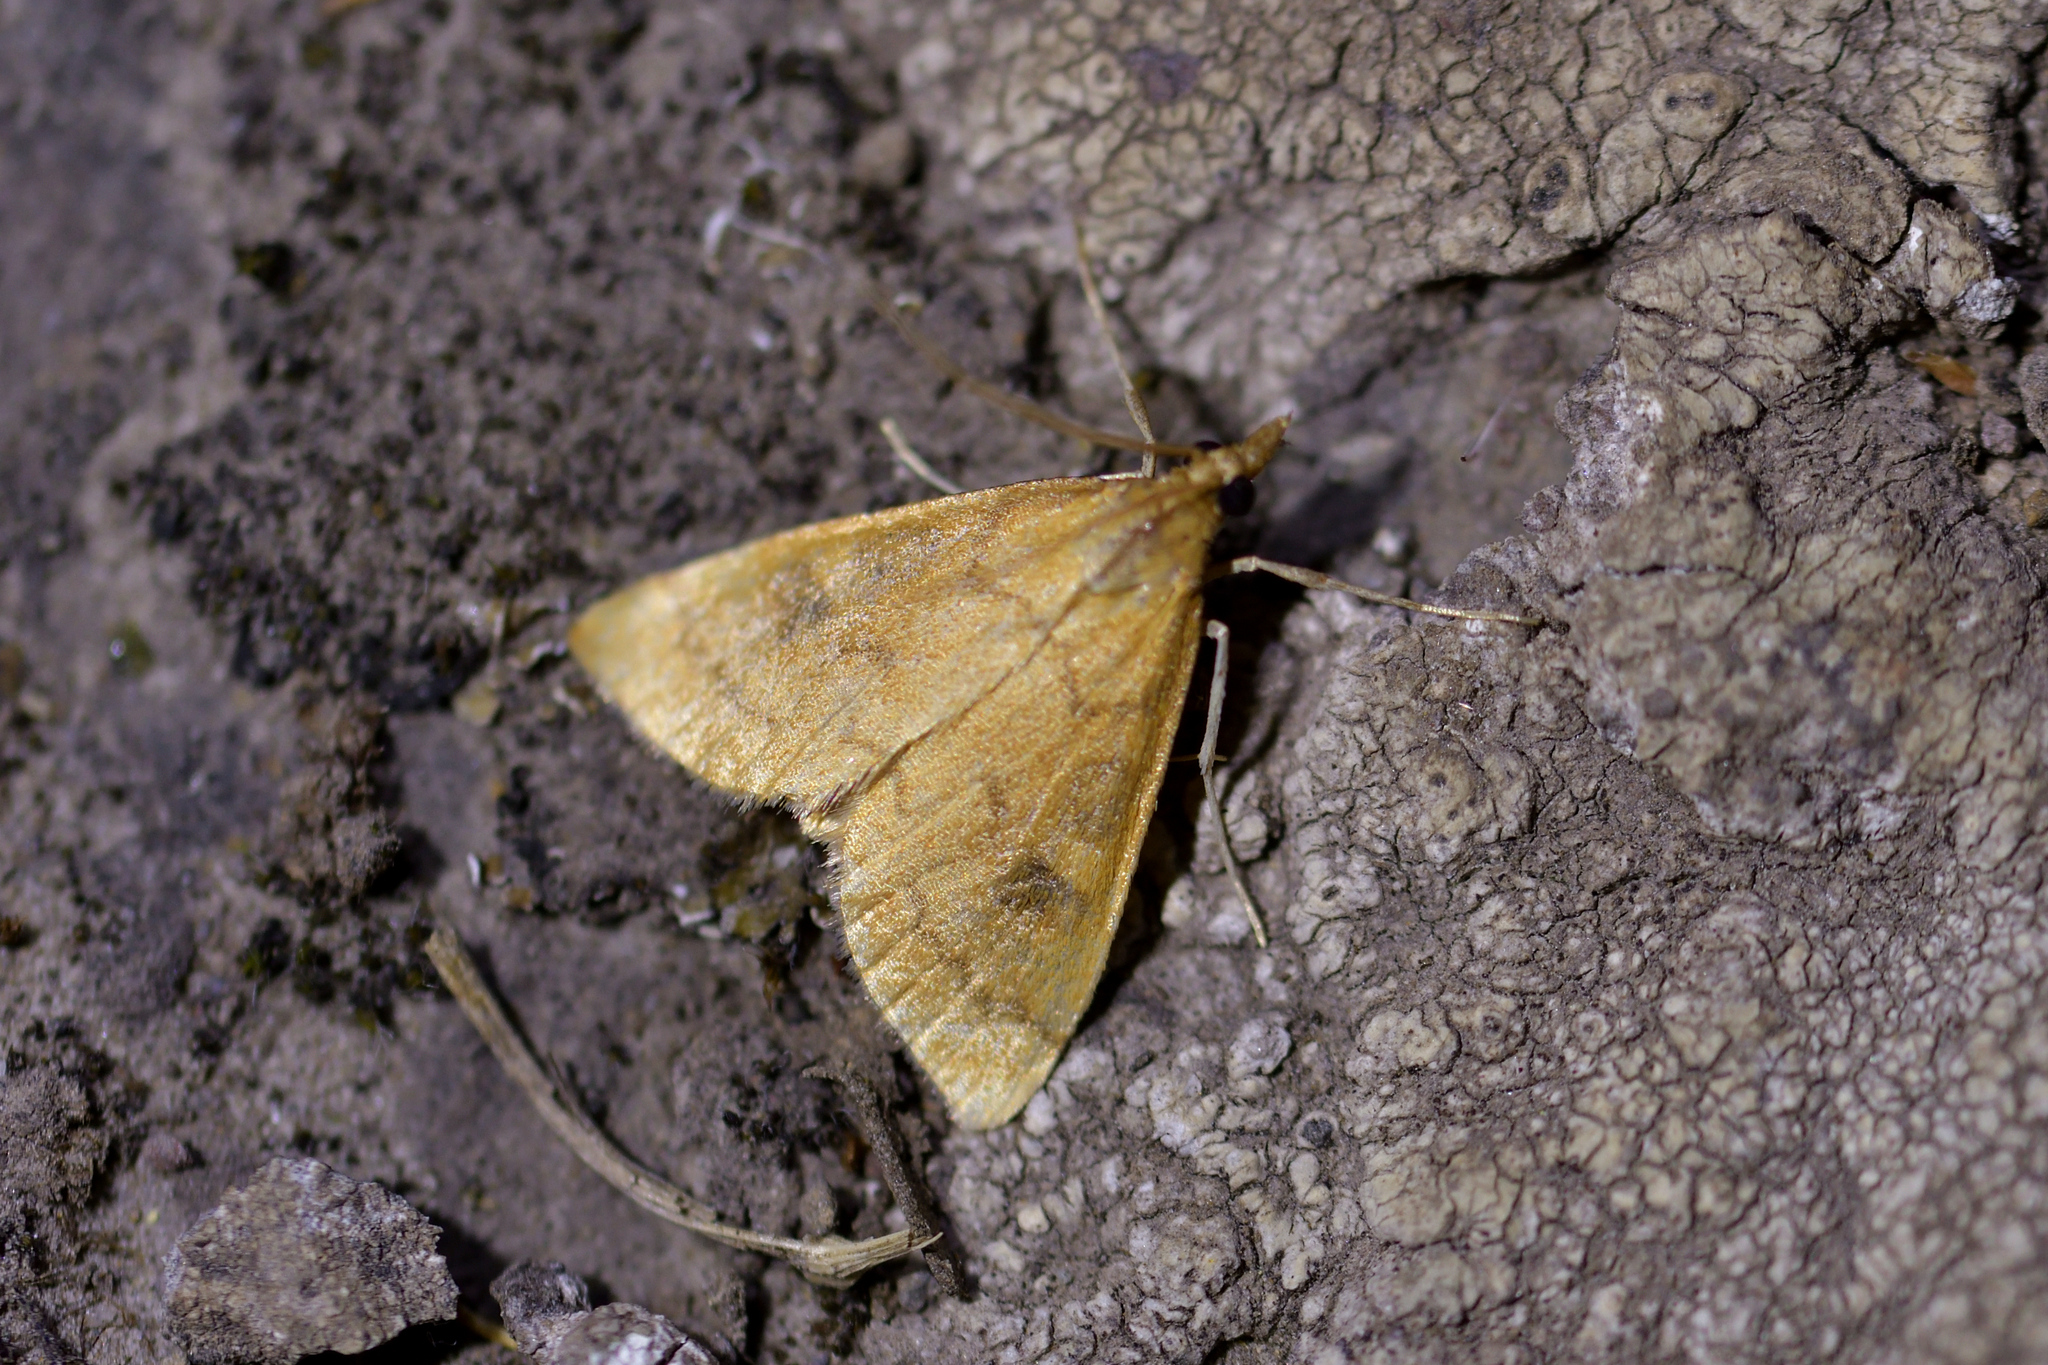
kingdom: Animalia
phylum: Arthropoda
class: Insecta
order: Lepidoptera
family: Crambidae
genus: Udea
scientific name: Udea Mnesictena flavidalis
